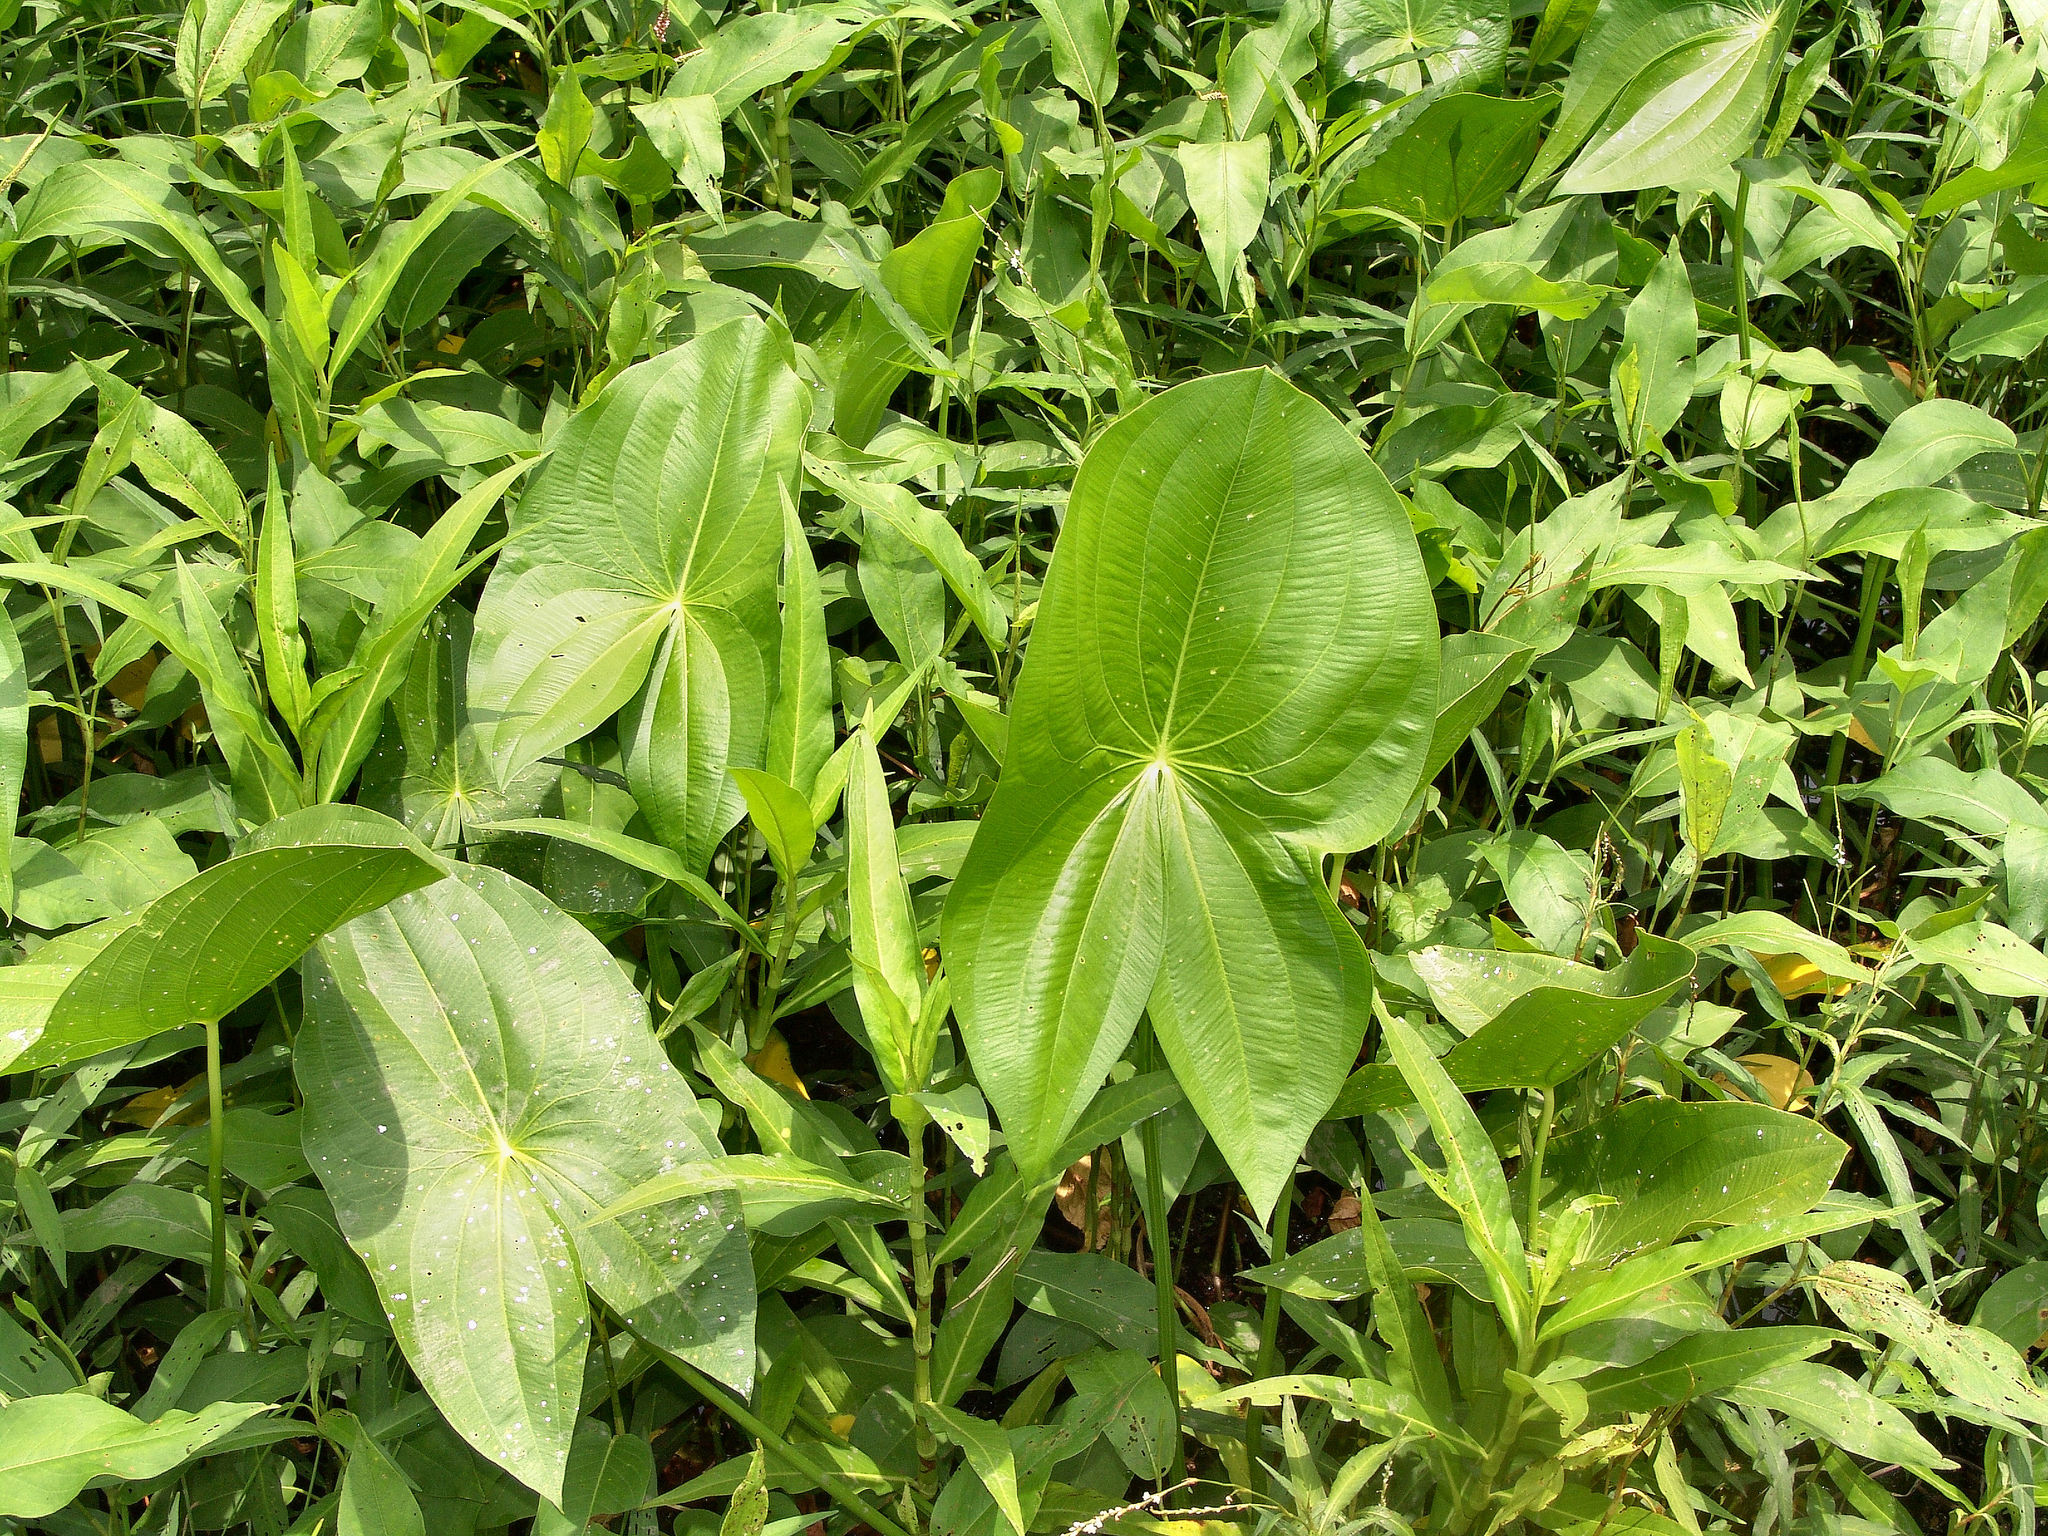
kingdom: Plantae
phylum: Tracheophyta
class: Liliopsida
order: Alismatales
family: Alismataceae
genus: Sagittaria
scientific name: Sagittaria latifolia
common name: Duck-potato
